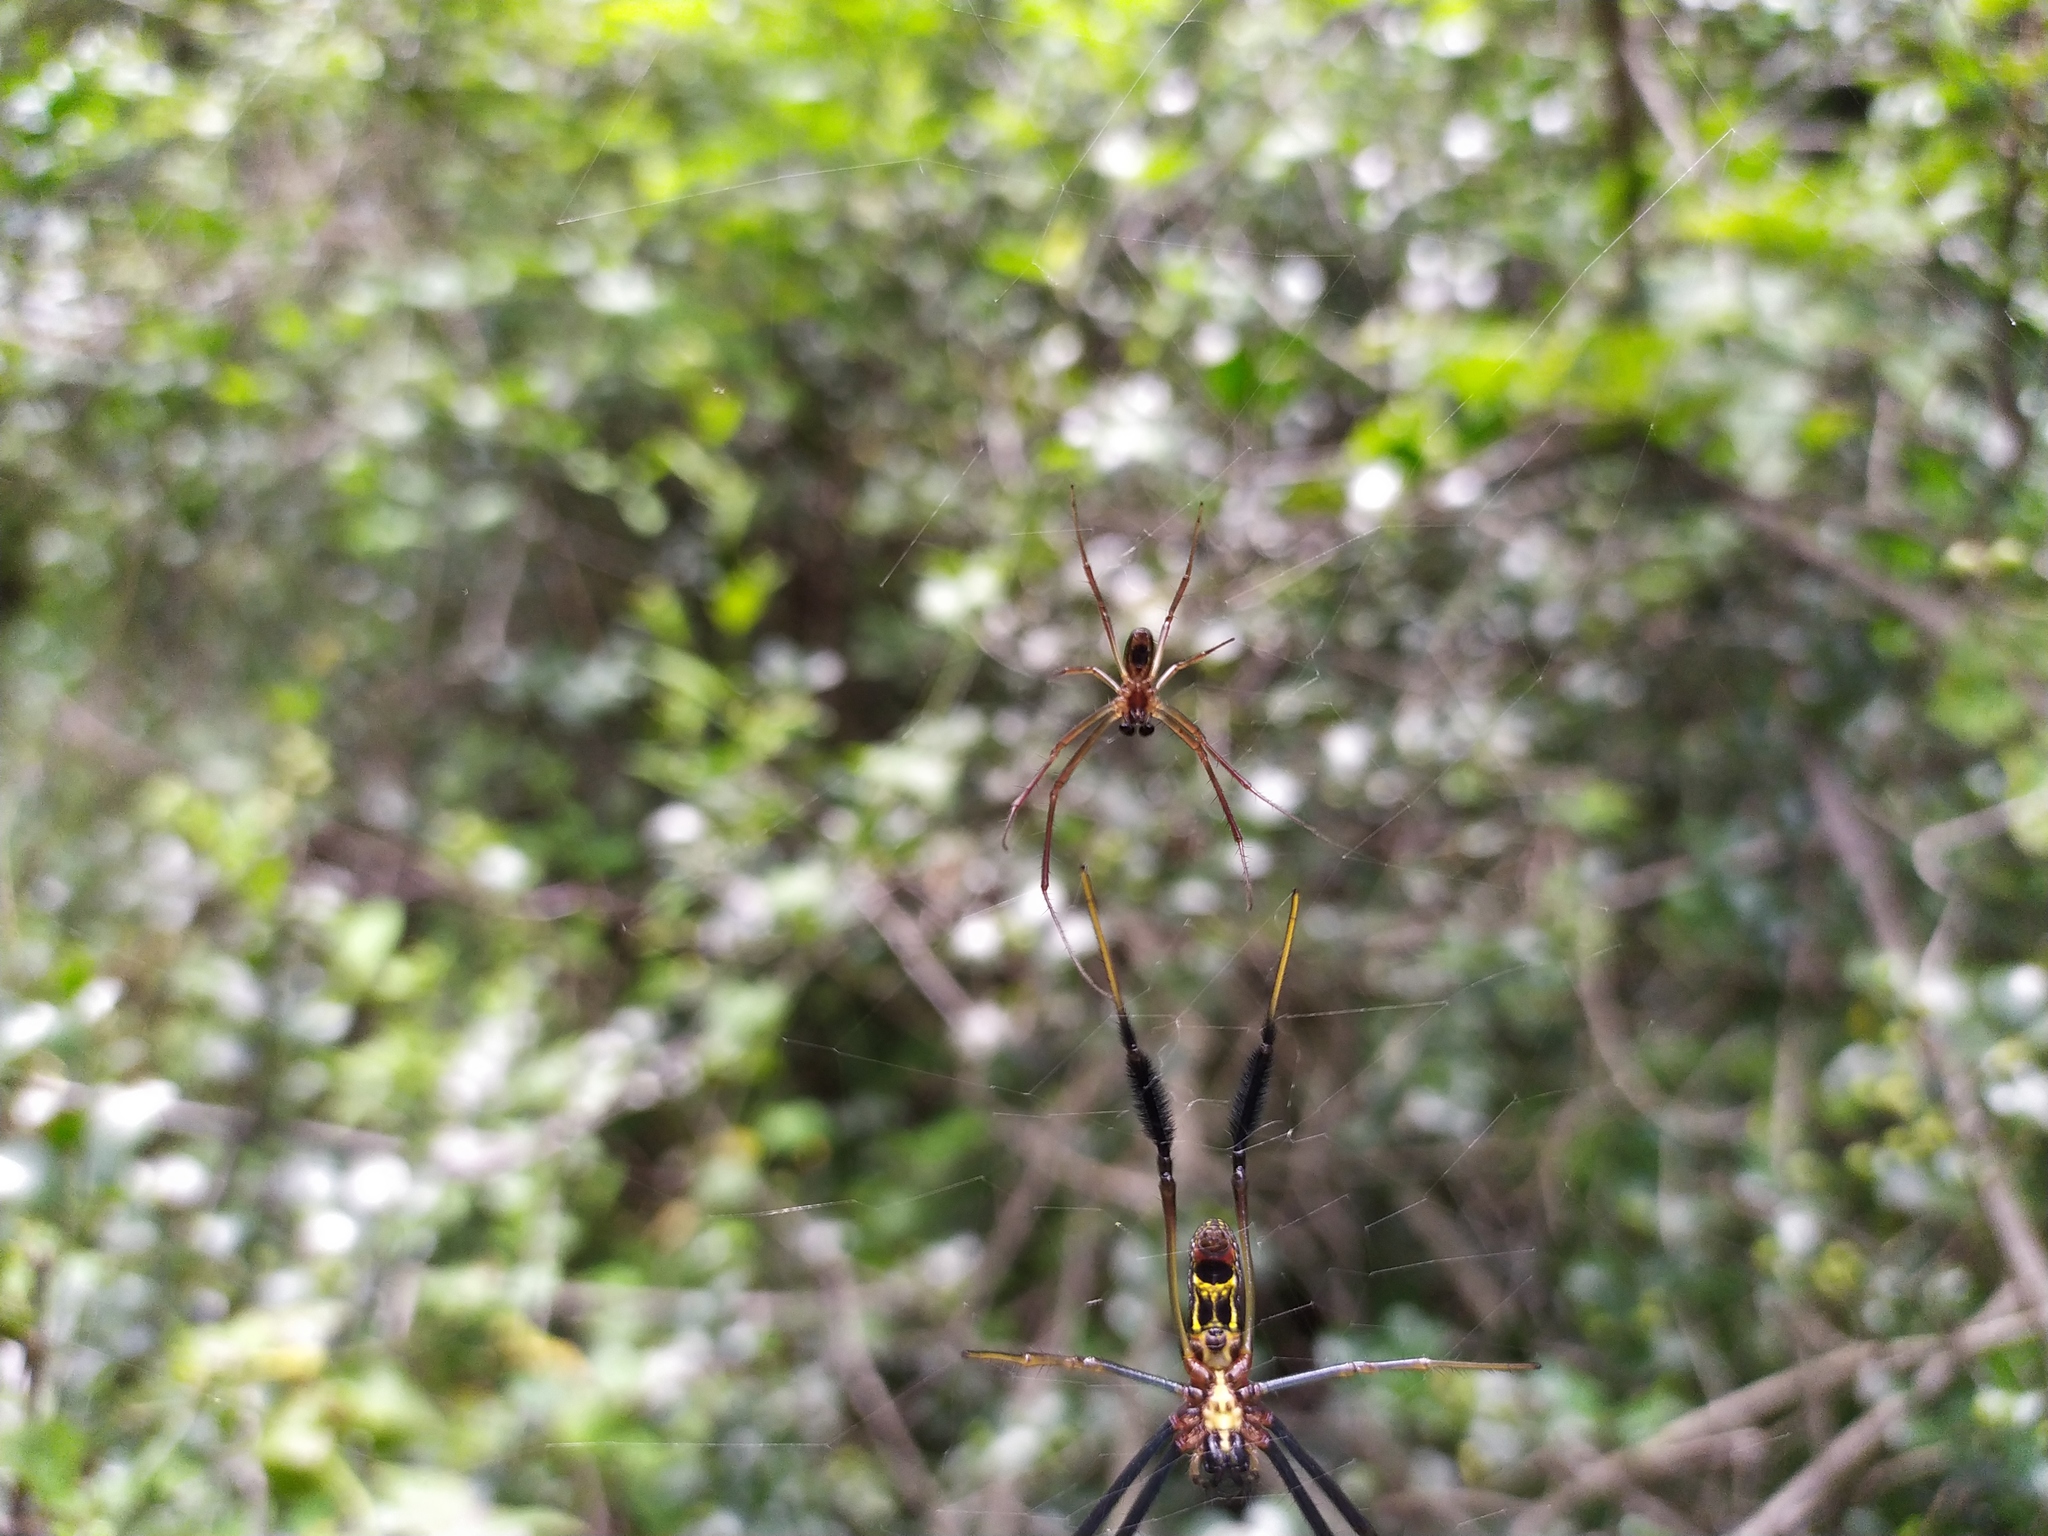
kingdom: Animalia
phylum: Arthropoda
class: Arachnida
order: Araneae
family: Araneidae
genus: Trichonephila
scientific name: Trichonephila fenestrata
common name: Hairy golden orb weaver
